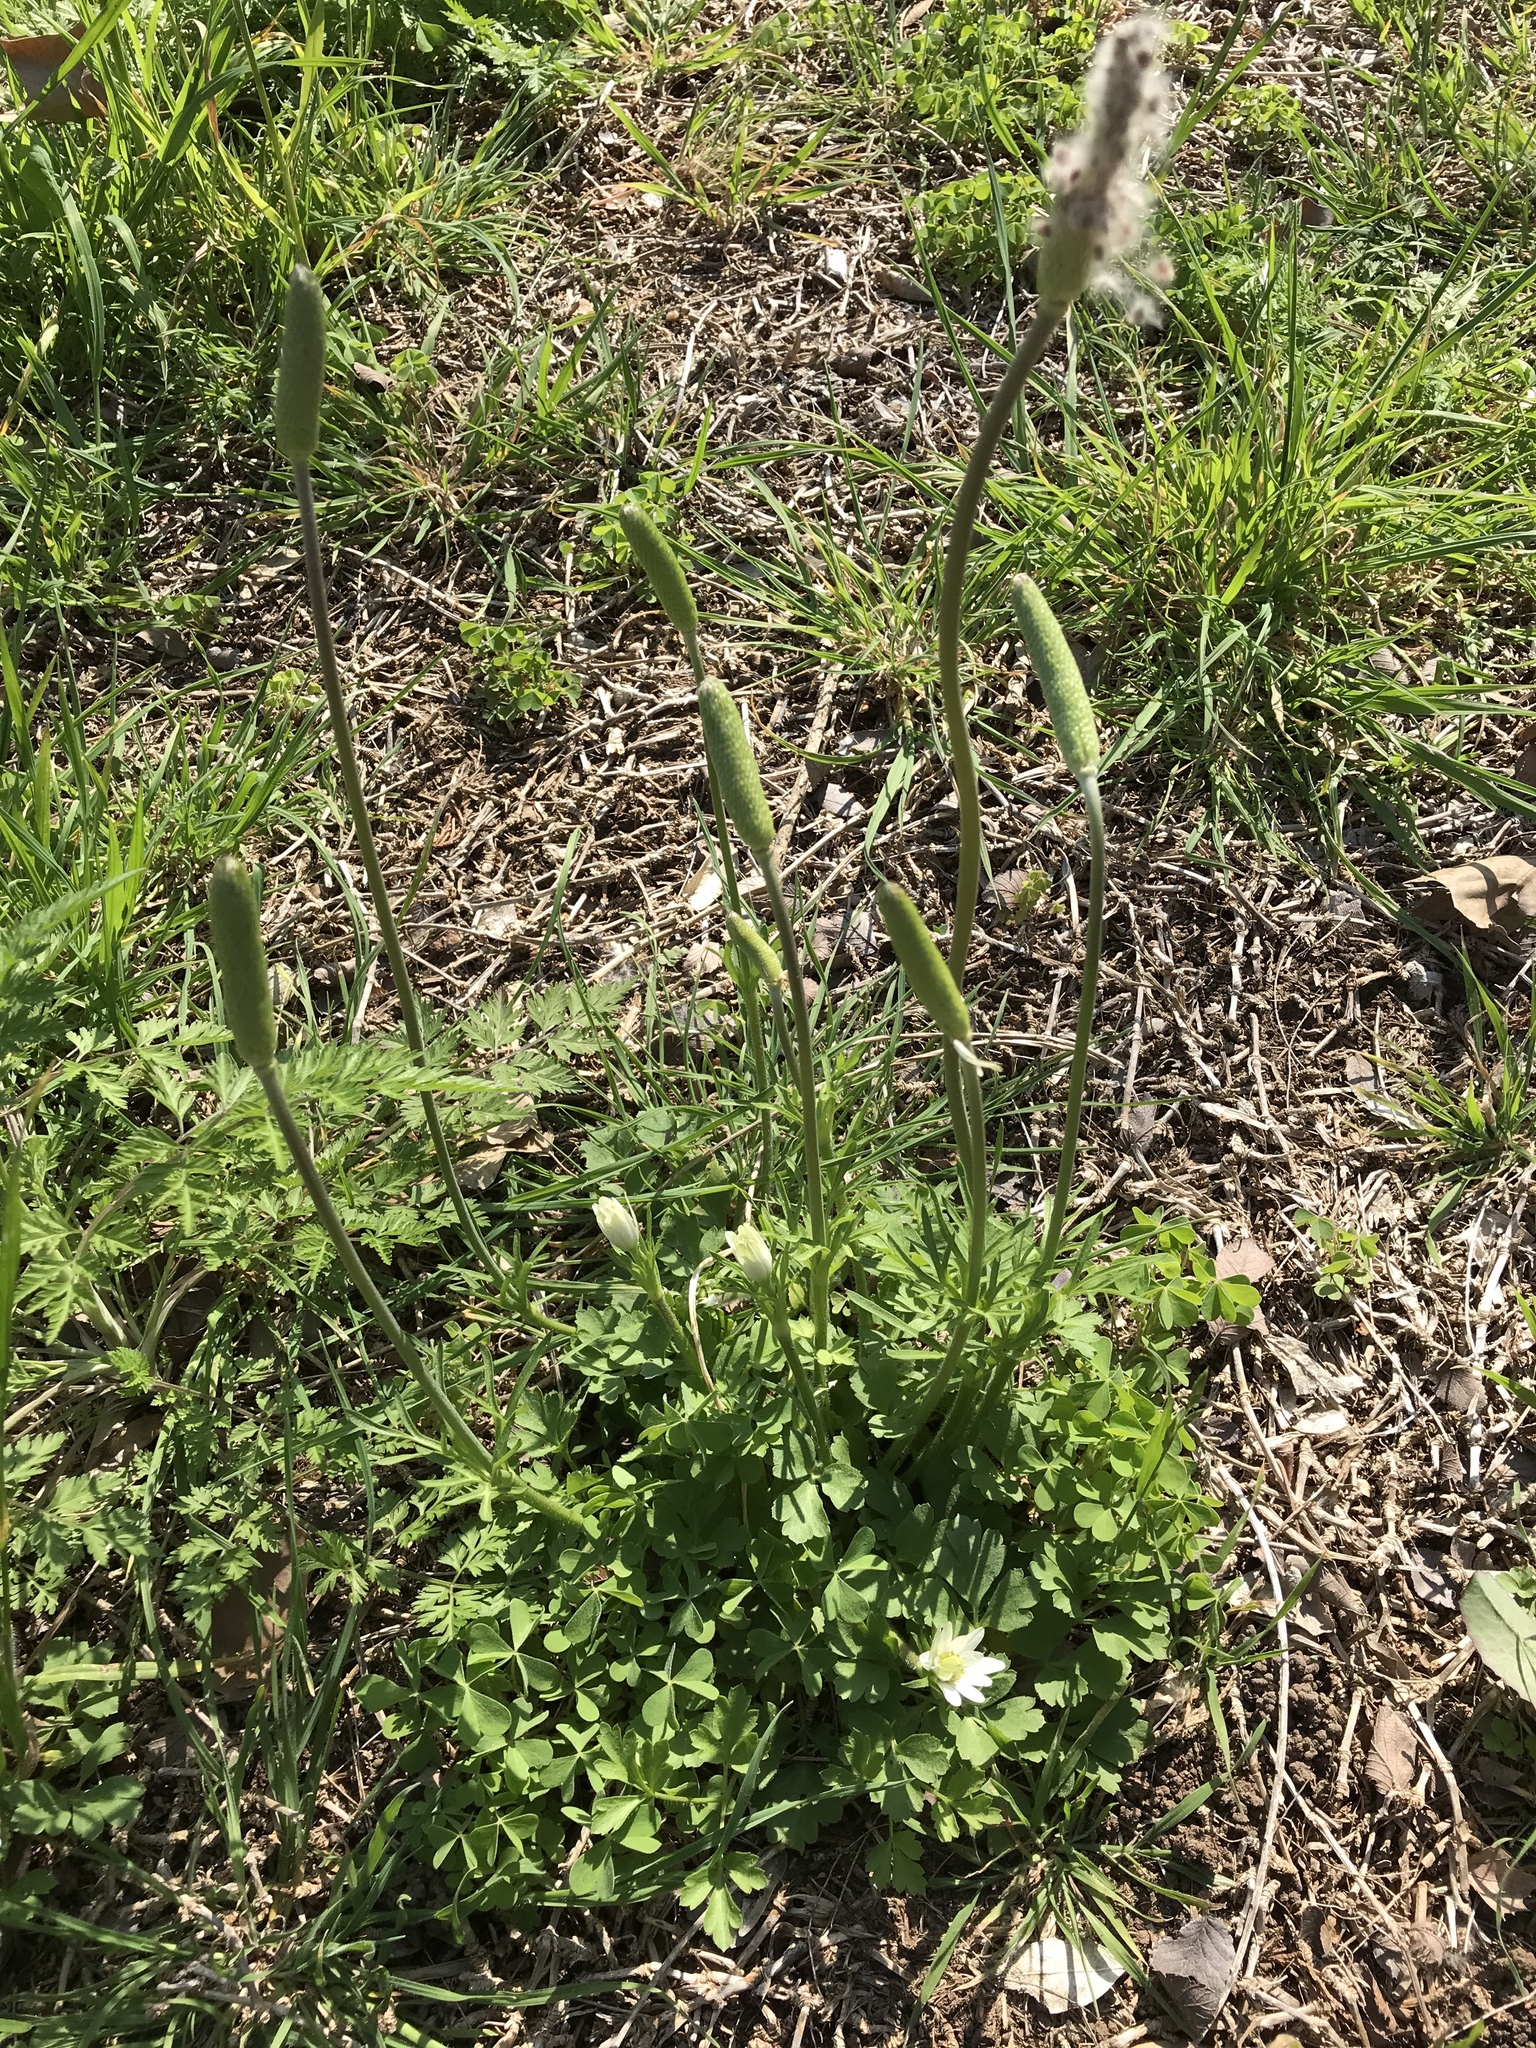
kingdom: Plantae
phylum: Tracheophyta
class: Magnoliopsida
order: Ranunculales
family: Ranunculaceae
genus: Anemone
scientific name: Anemone berlandieri
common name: Ten-petal anemone
